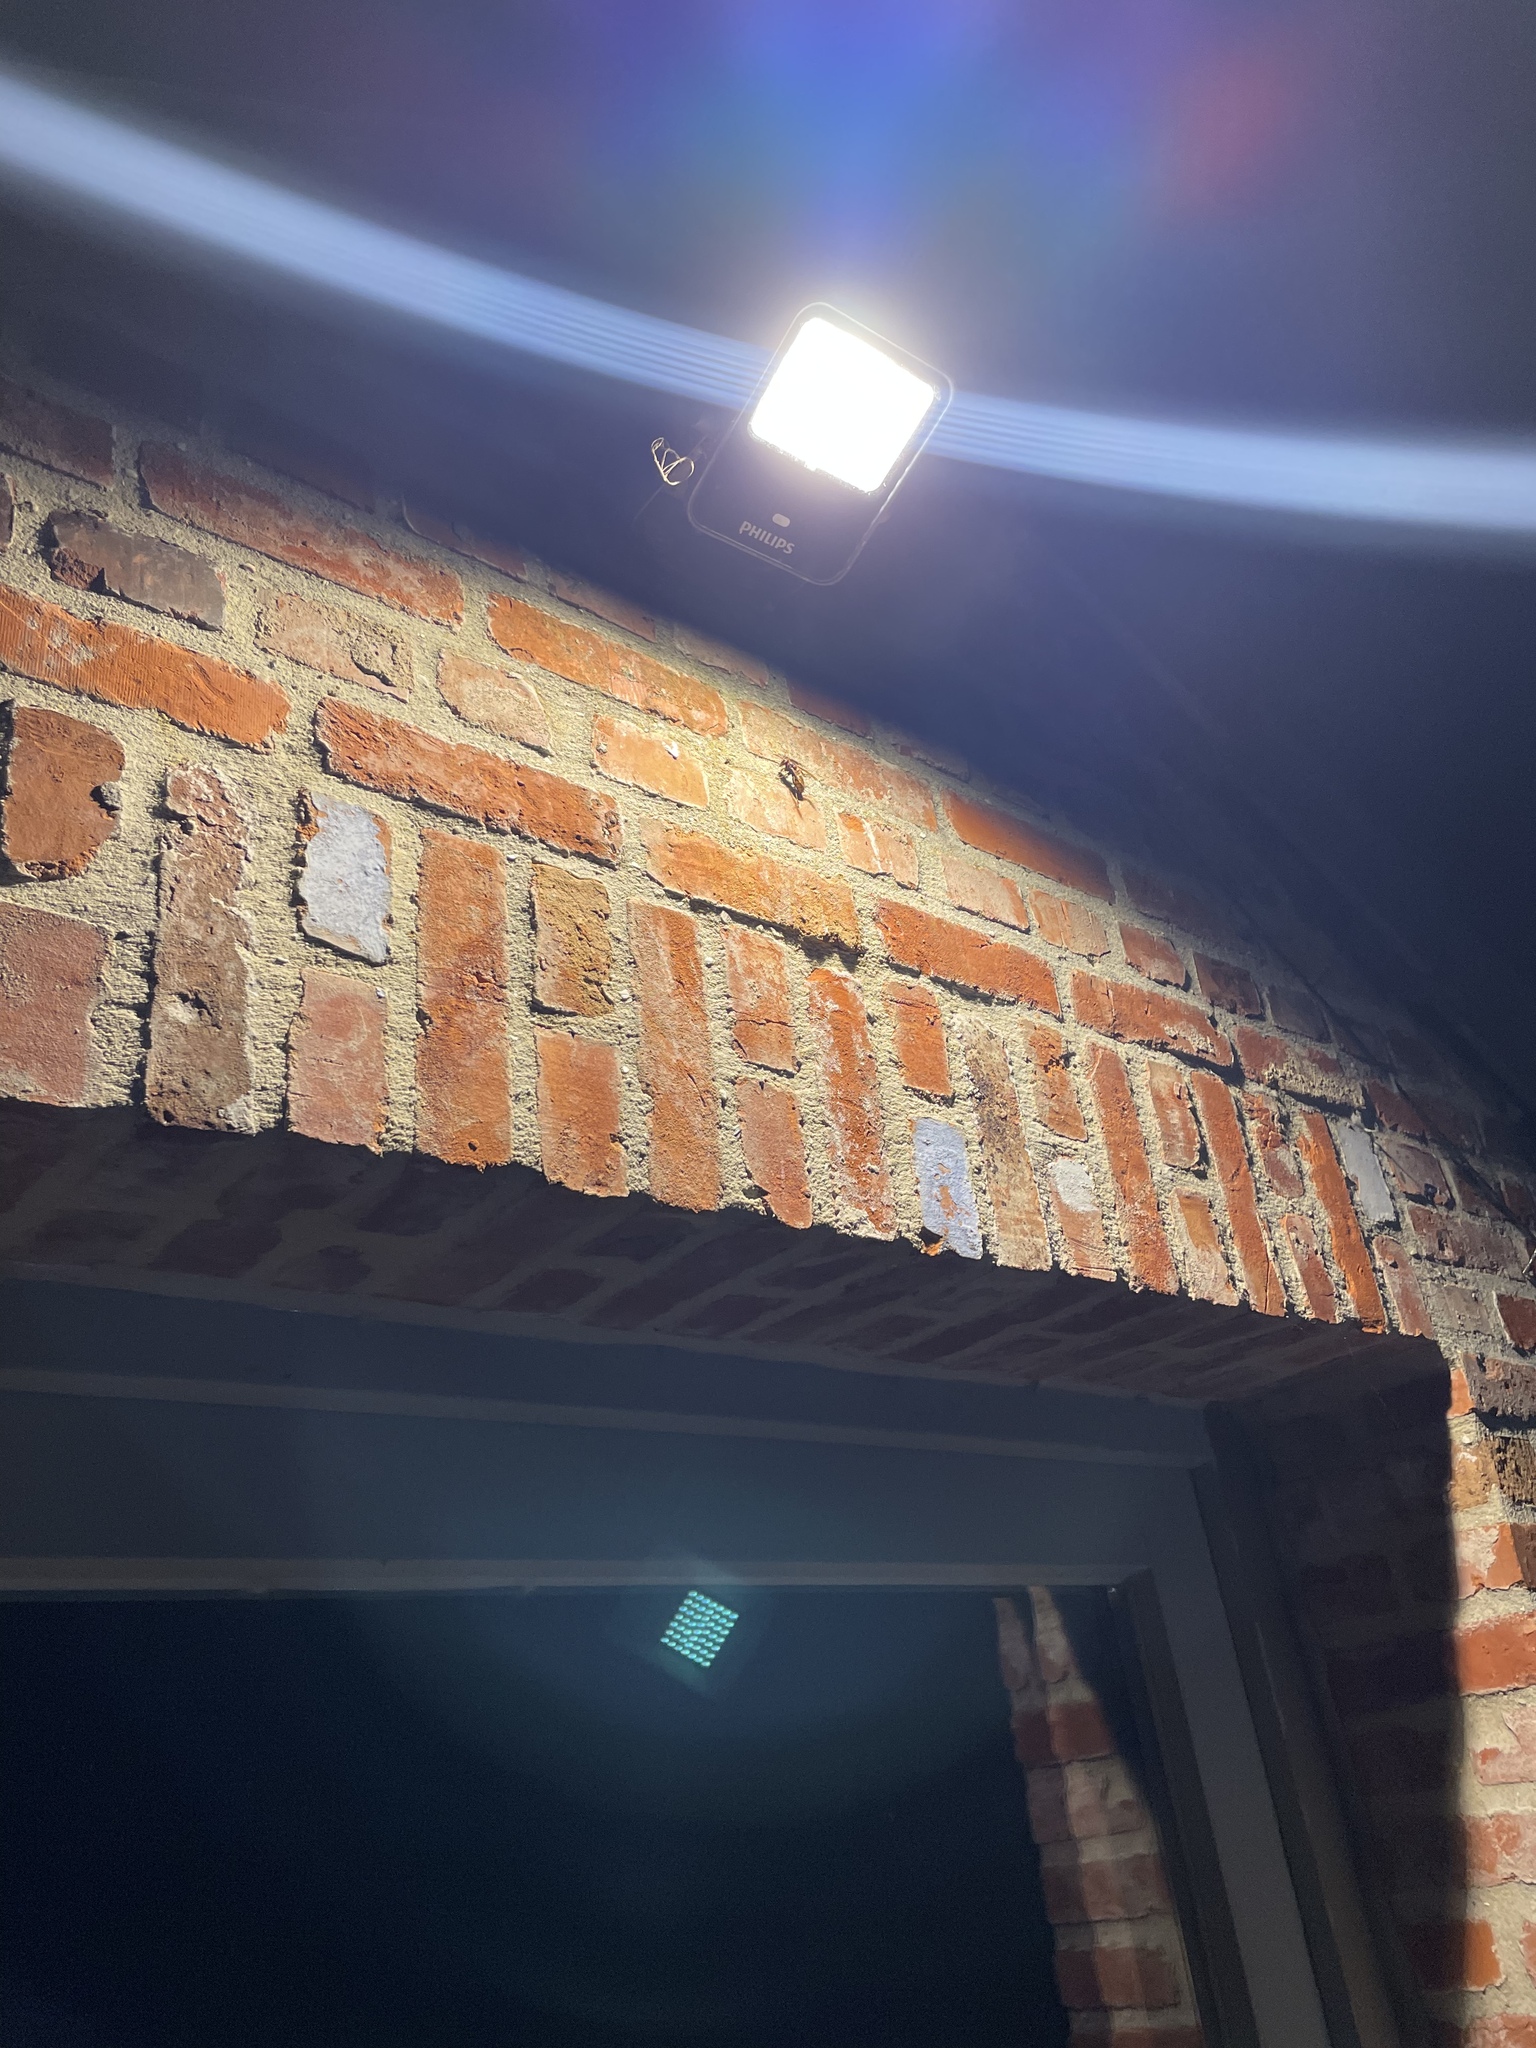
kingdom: Animalia
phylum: Arthropoda
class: Insecta
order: Hymenoptera
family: Vespidae
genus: Vespa
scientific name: Vespa crabro
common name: Hornet
